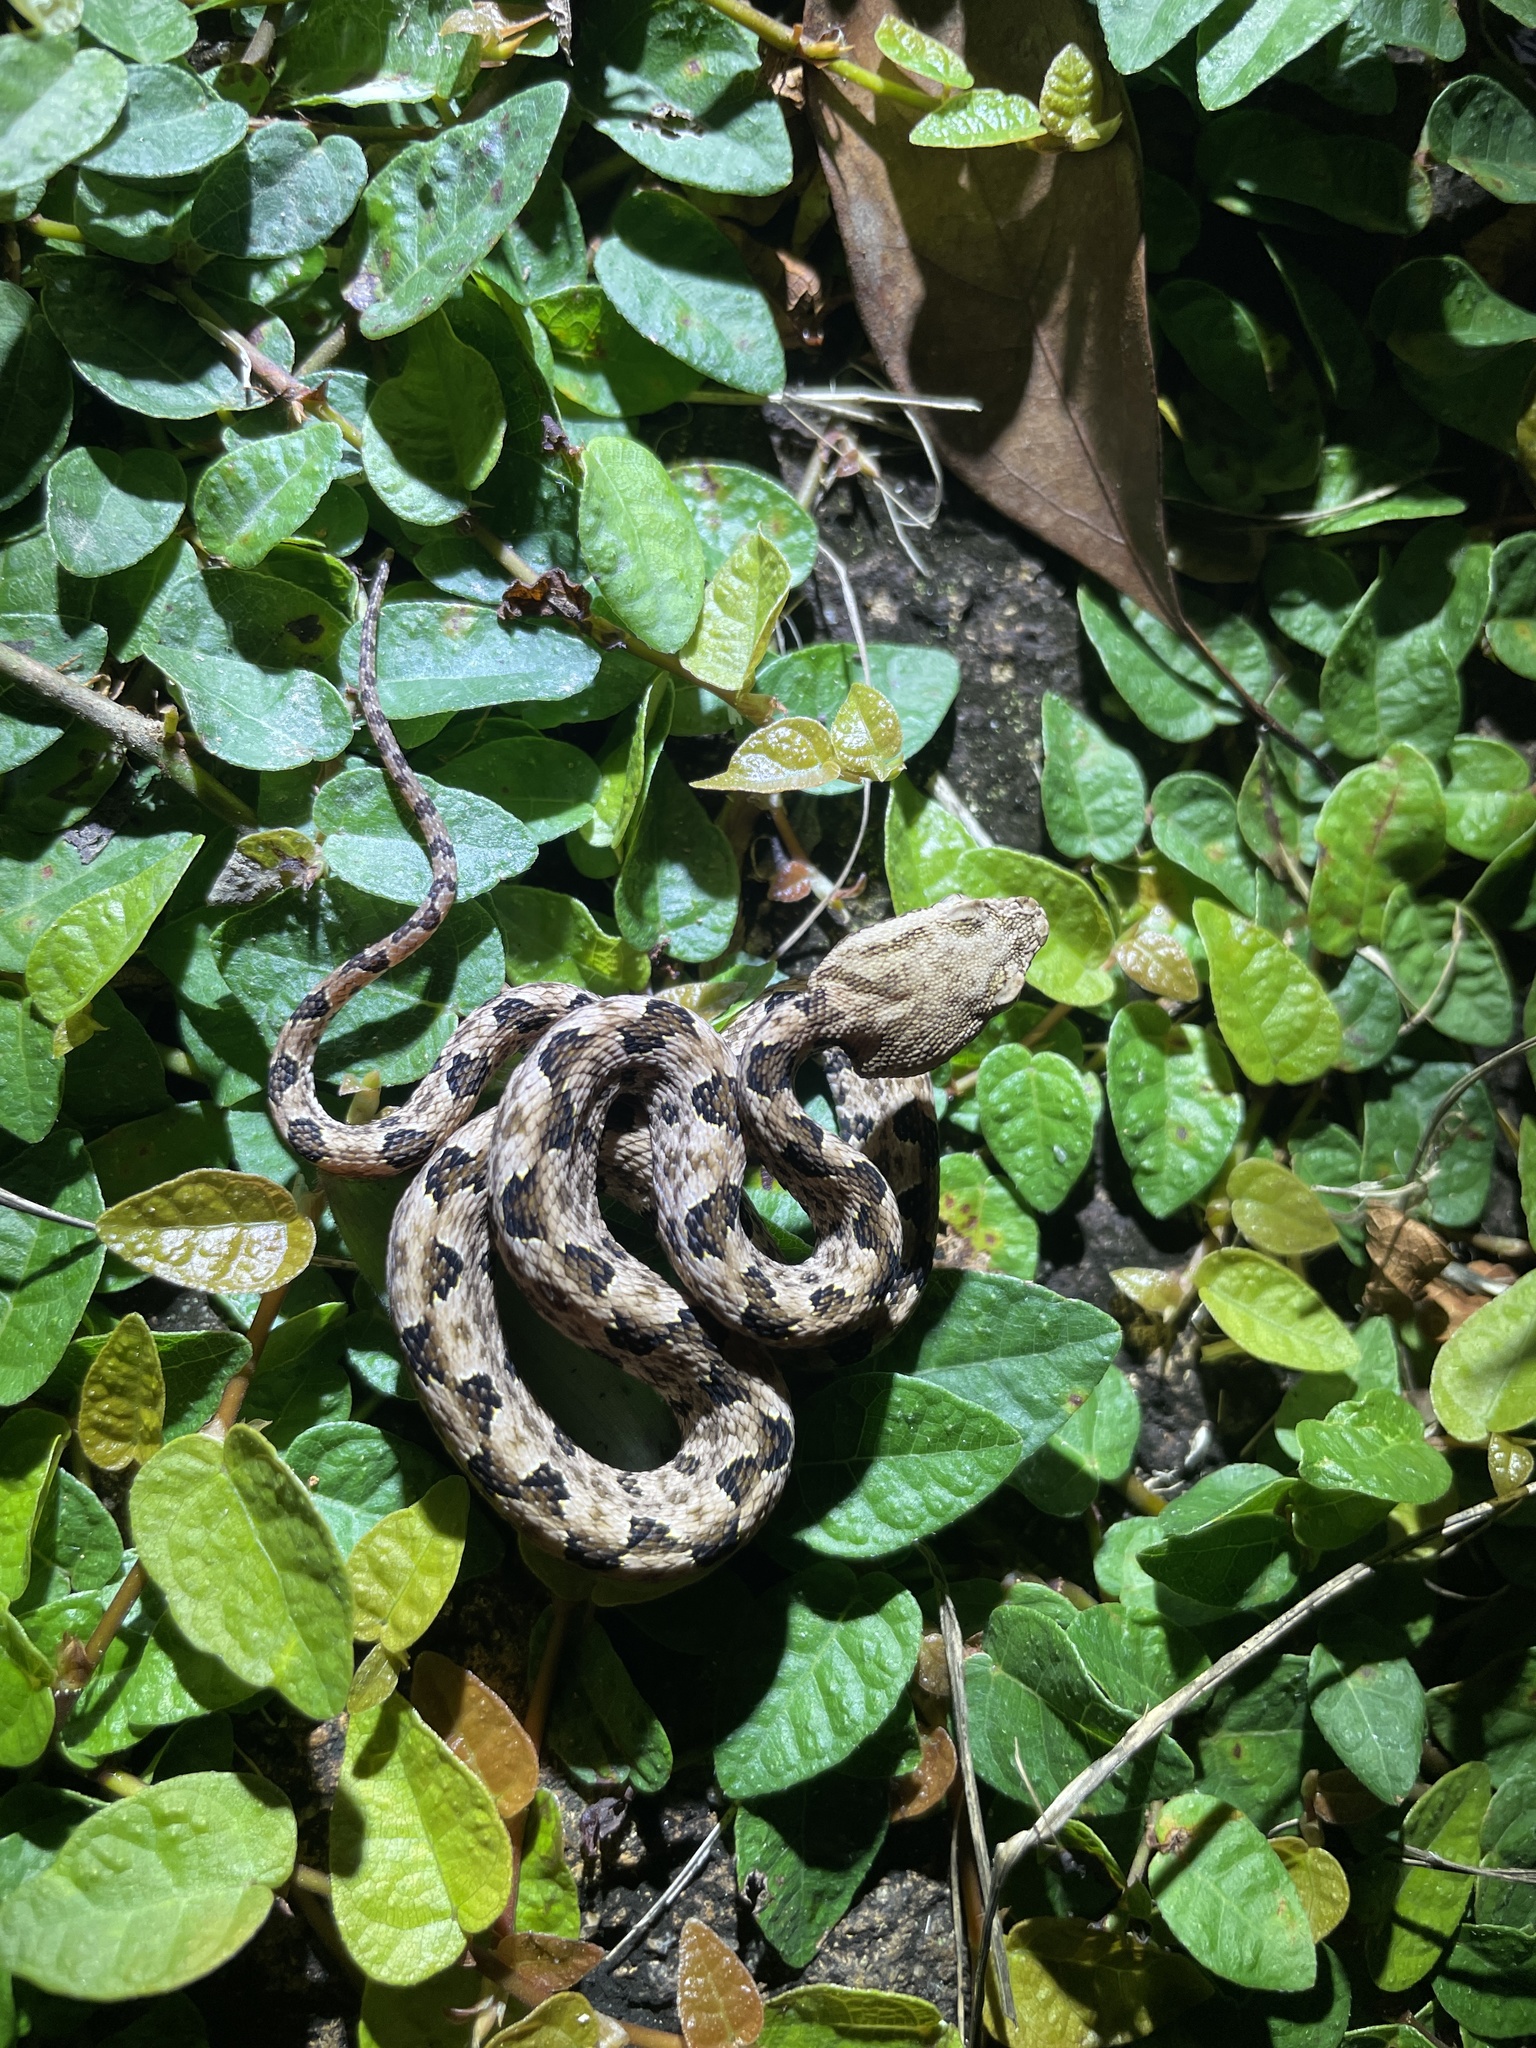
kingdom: Animalia
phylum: Chordata
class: Squamata
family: Viperidae
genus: Protobothrops
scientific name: Protobothrops mucrosquamatus
